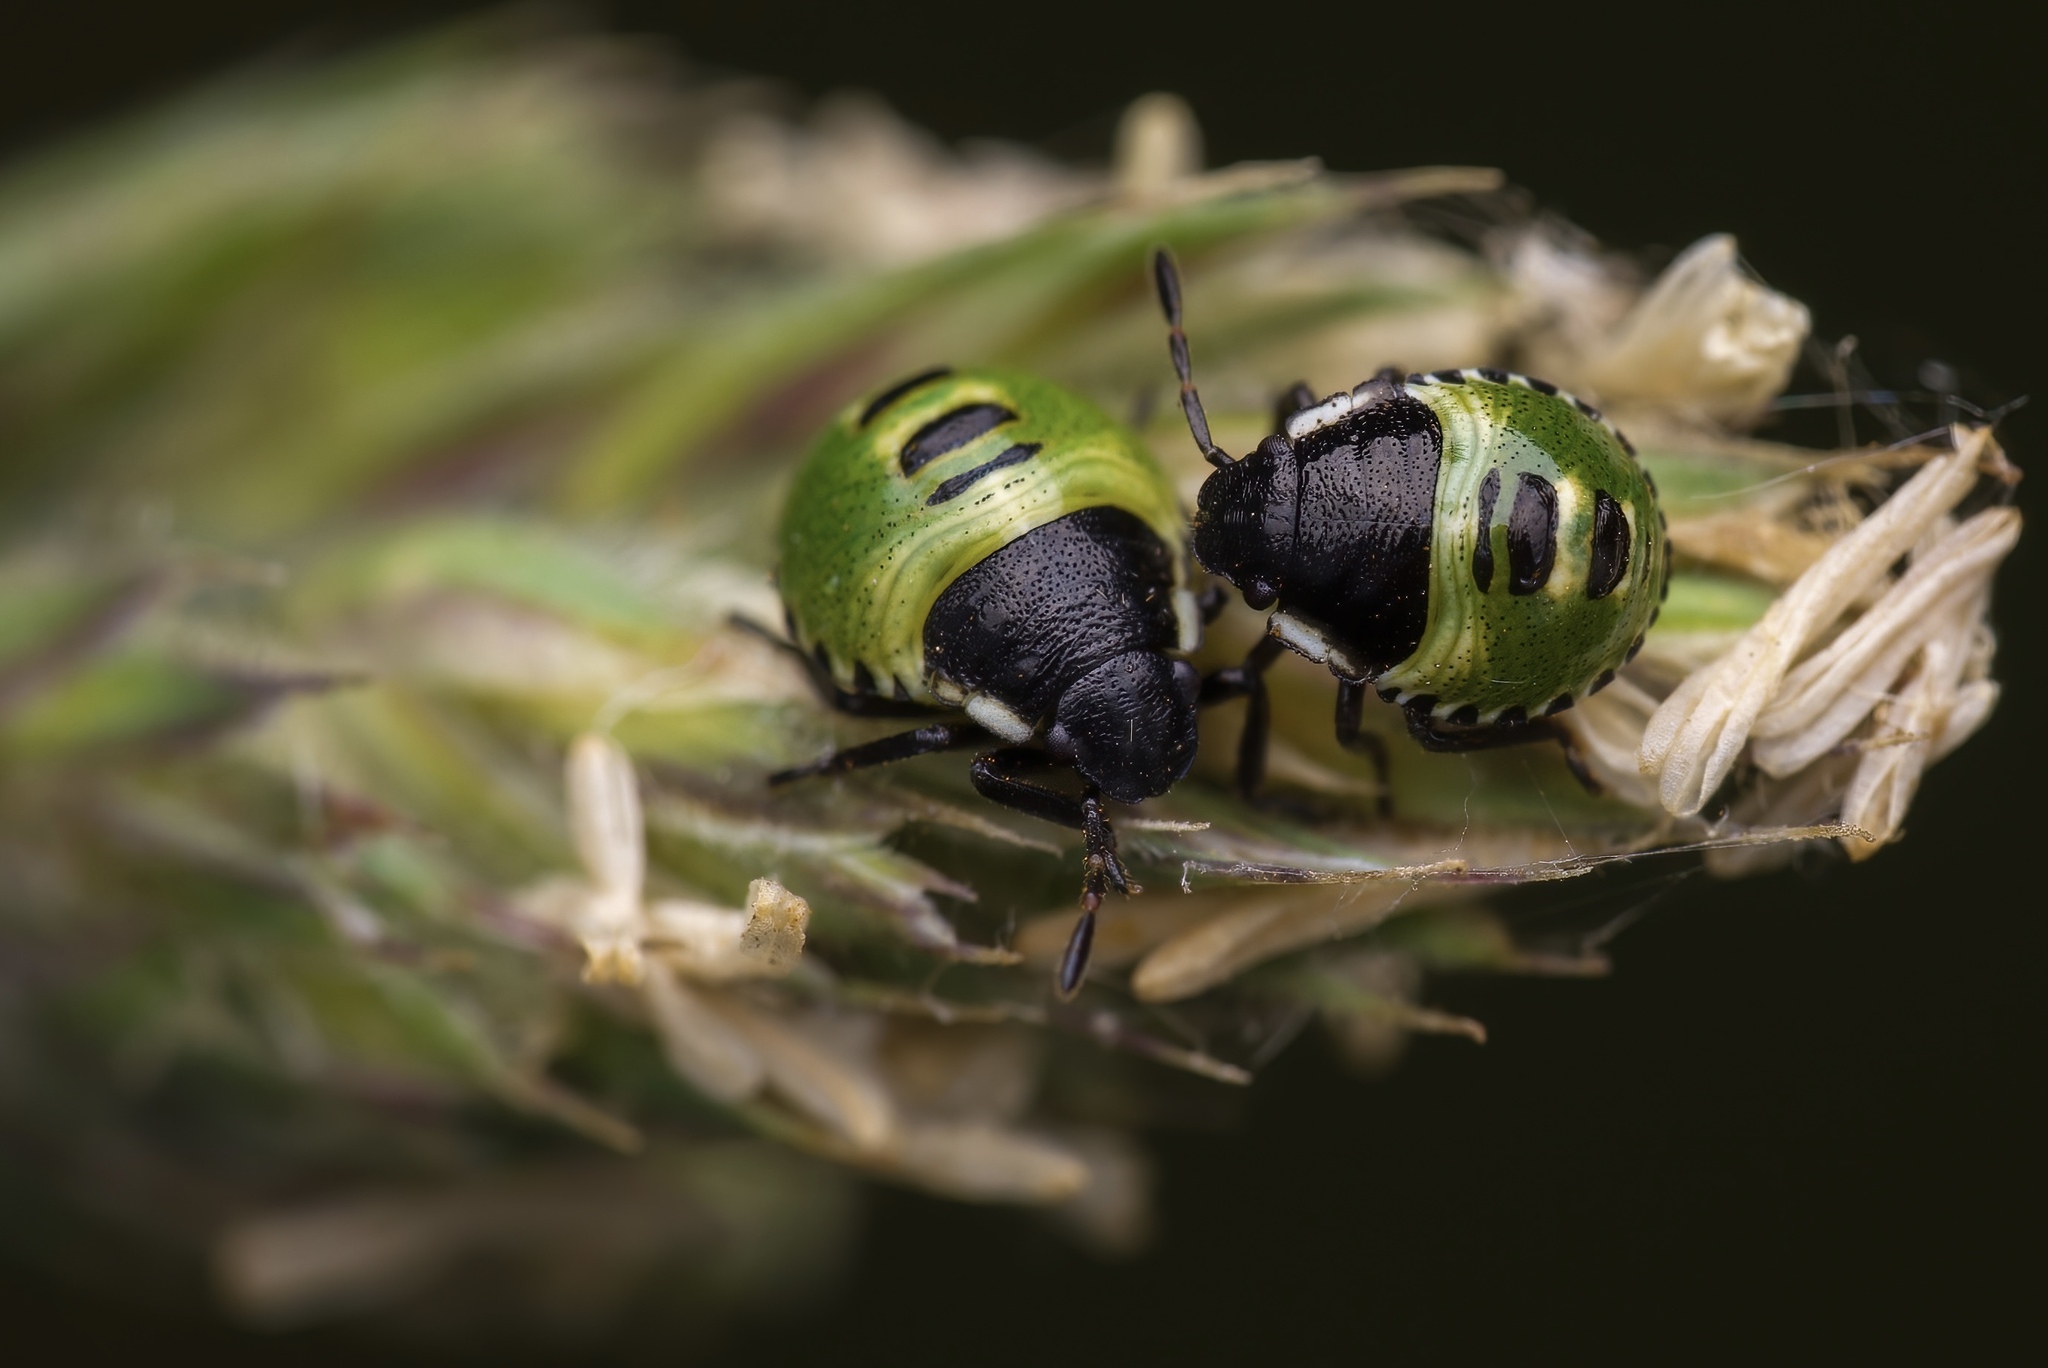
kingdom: Animalia
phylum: Arthropoda
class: Insecta
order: Hemiptera
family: Pentatomidae
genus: Palomena
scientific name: Palomena prasina
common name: Green shieldbug
